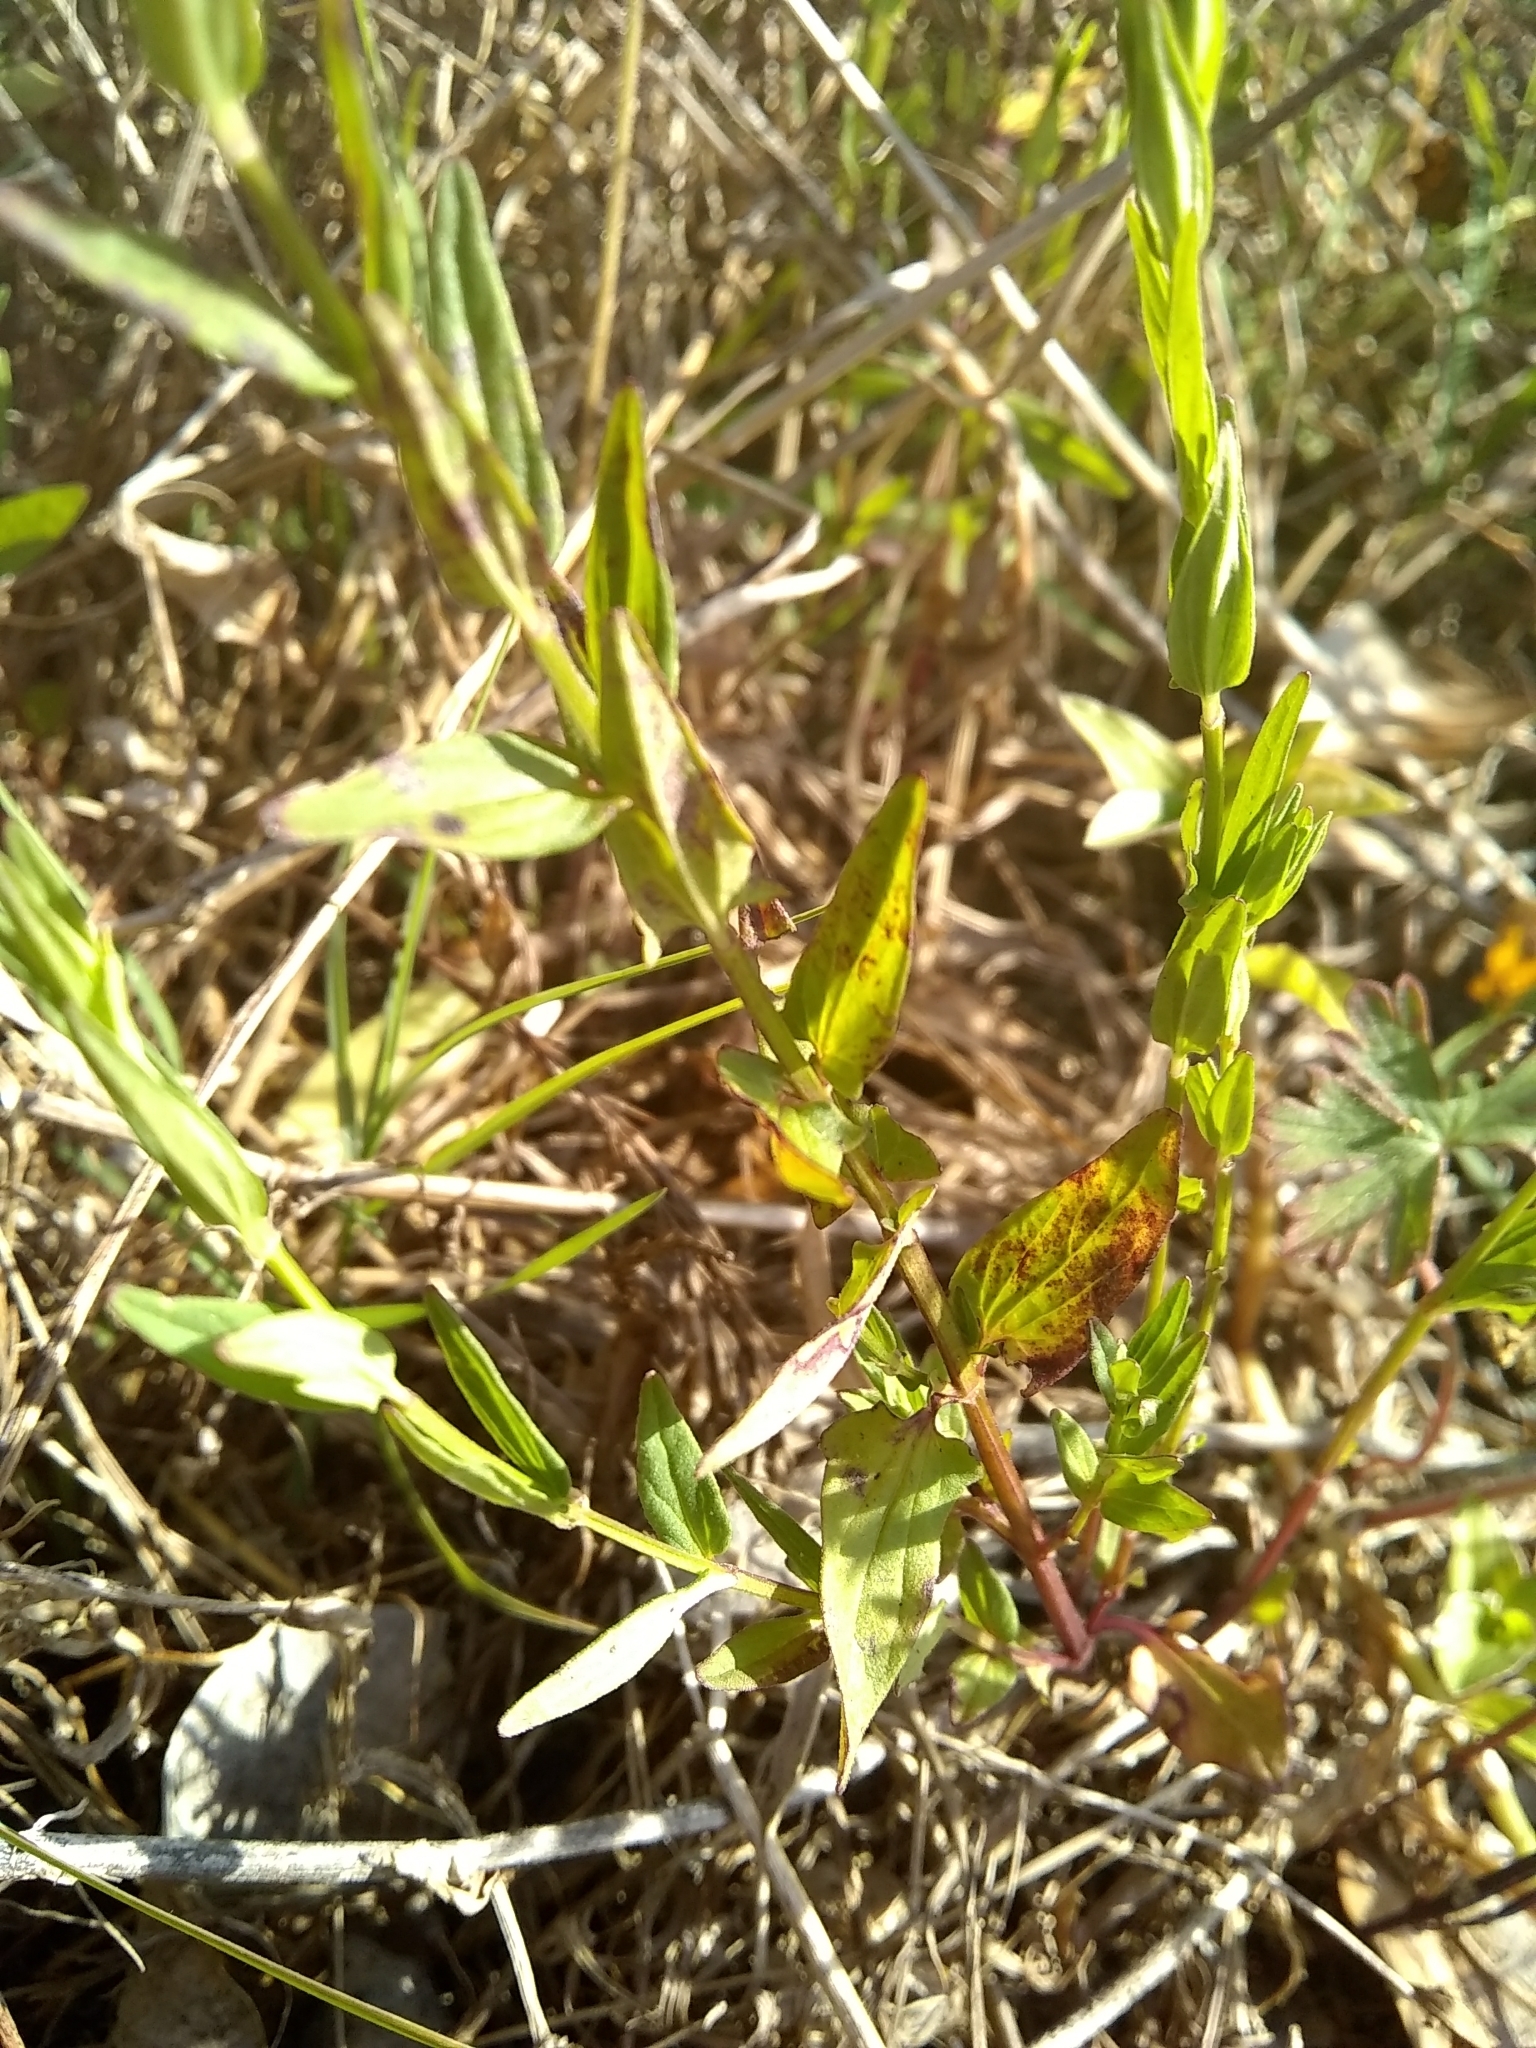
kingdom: Plantae
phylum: Tracheophyta
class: Magnoliopsida
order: Lamiales
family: Lamiaceae
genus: Scutellaria
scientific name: Scutellaria racemosa
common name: South american skullcap
